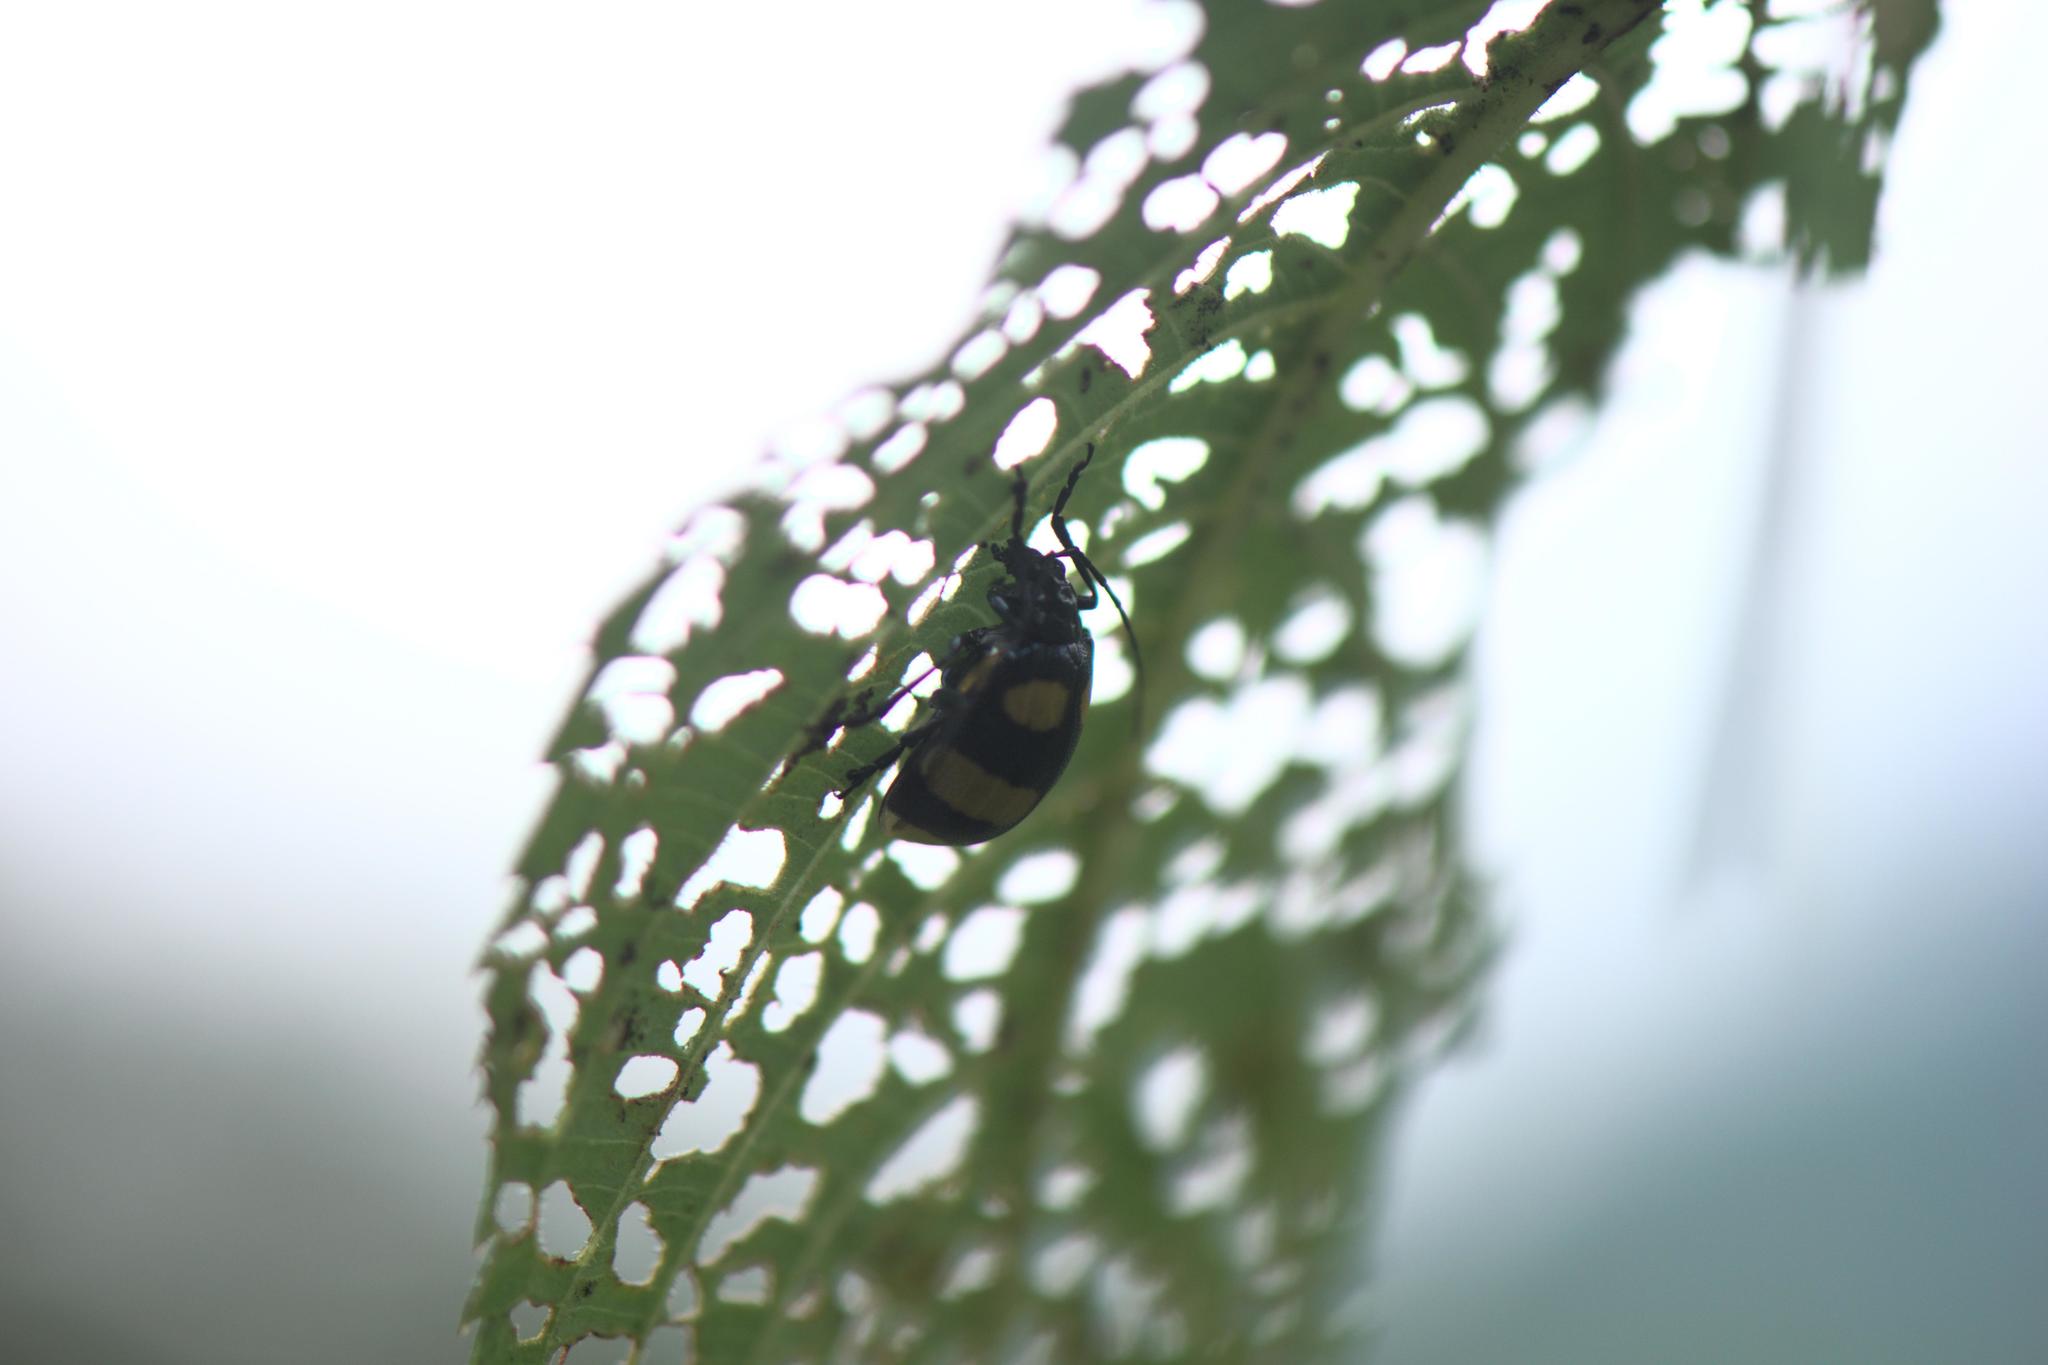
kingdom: Animalia
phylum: Arthropoda
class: Insecta
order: Coleoptera
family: Chrysomelidae
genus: Meristata
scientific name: Meristata
